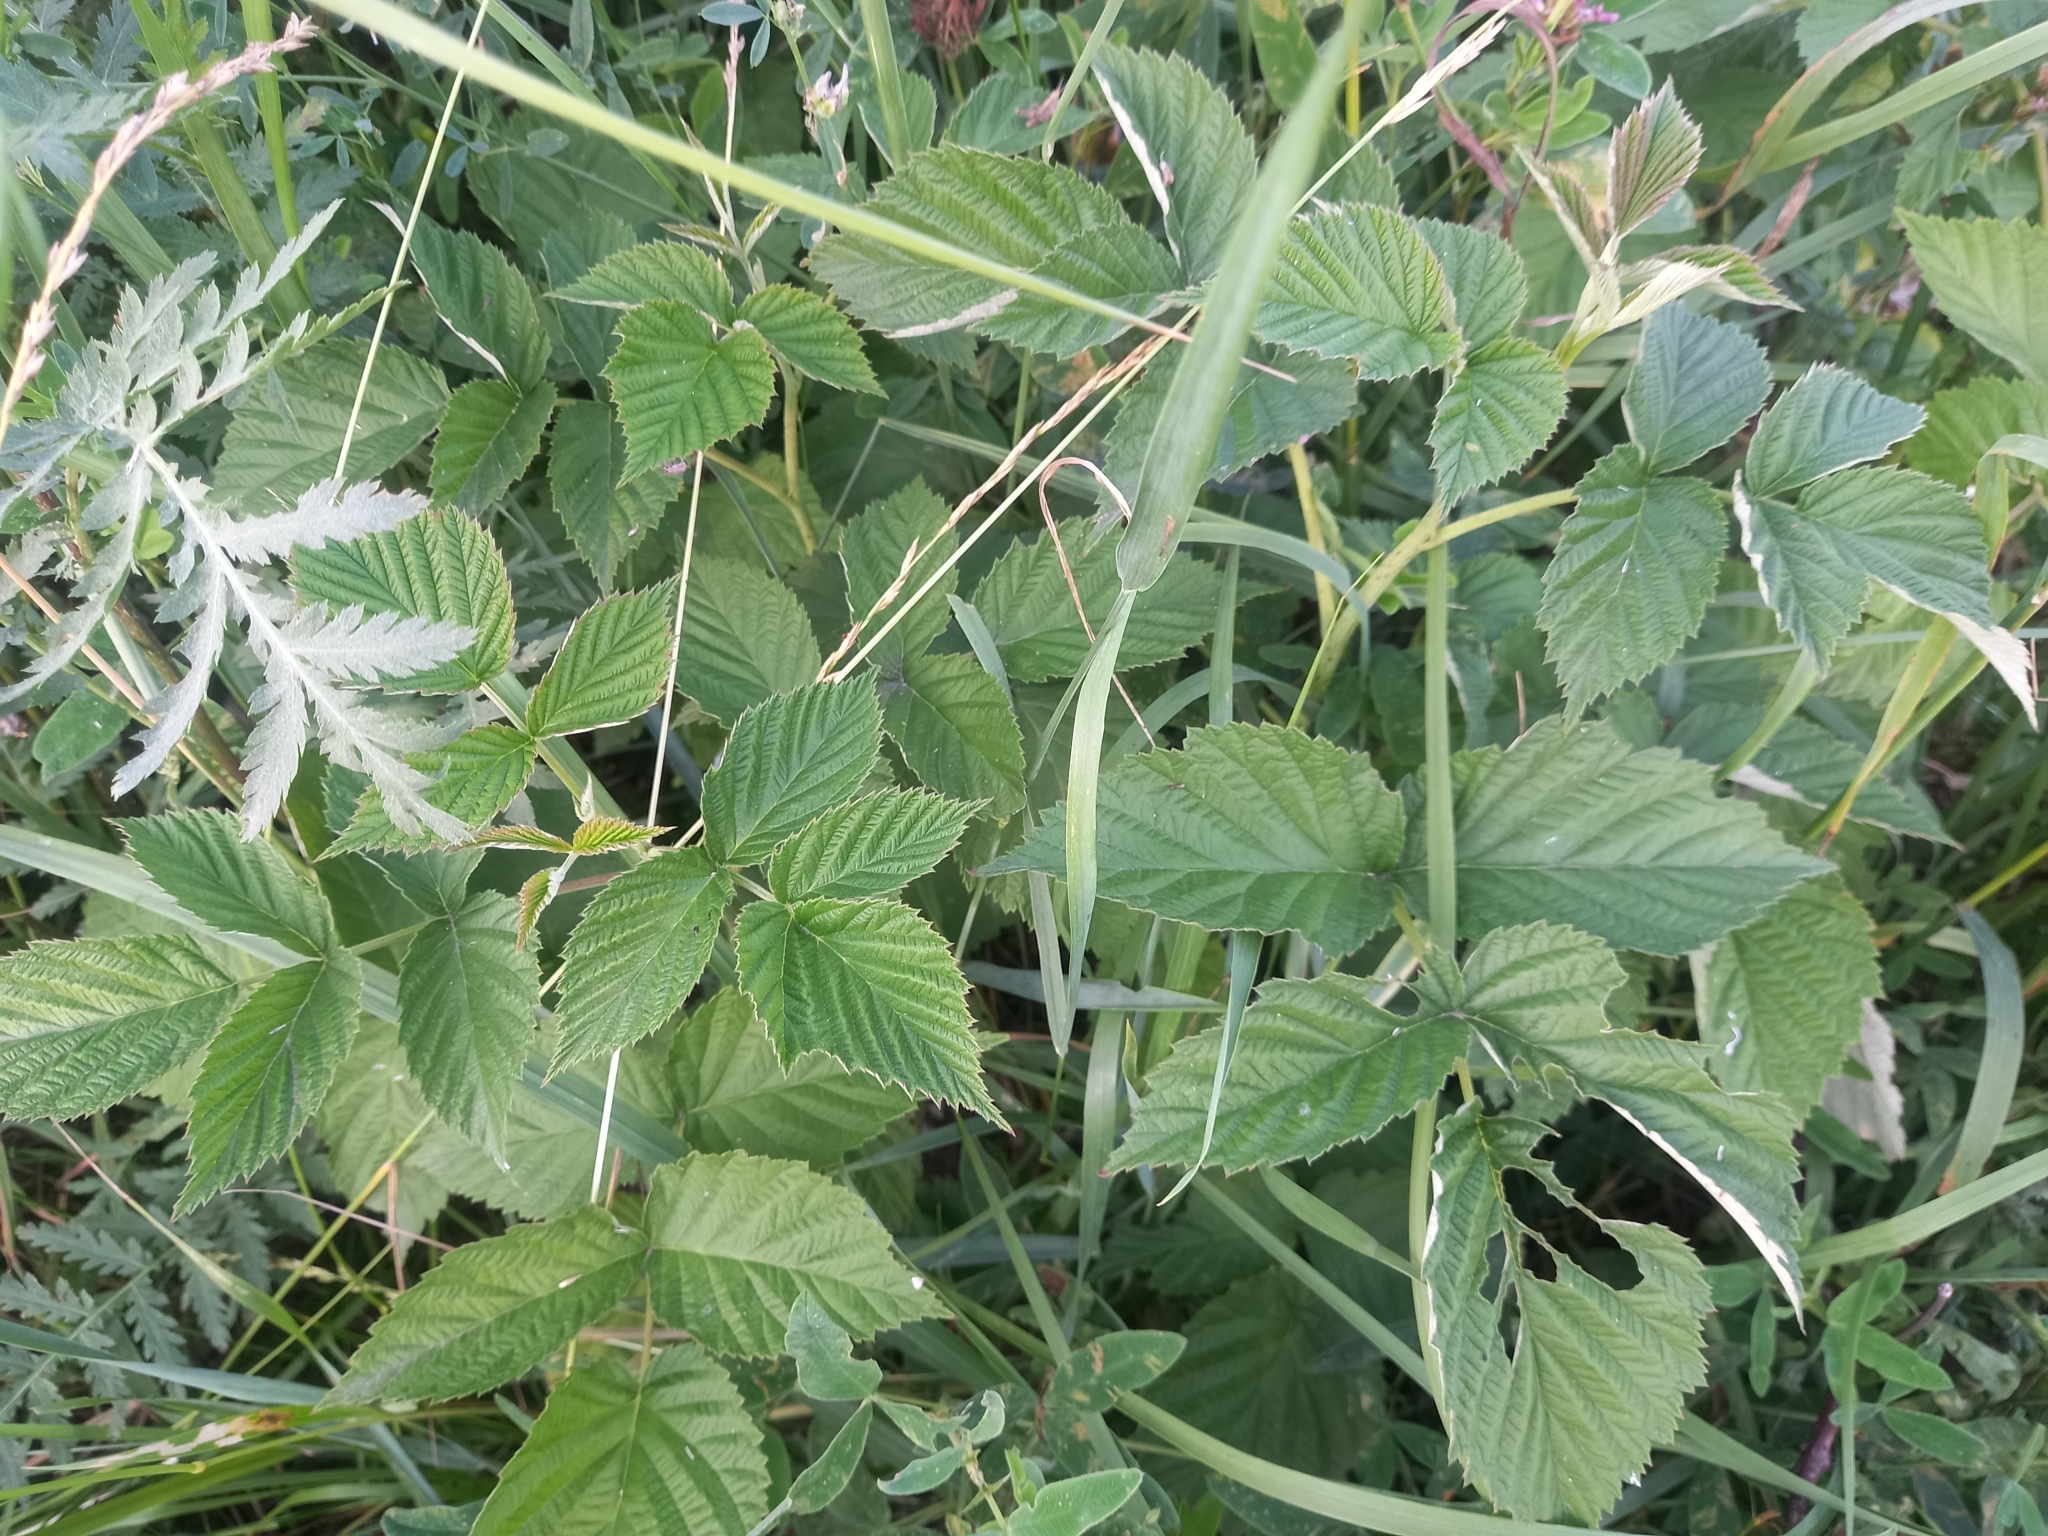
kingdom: Plantae
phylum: Tracheophyta
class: Magnoliopsida
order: Rosales
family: Rosaceae
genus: Rubus
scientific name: Rubus idaeus
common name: Raspberry
